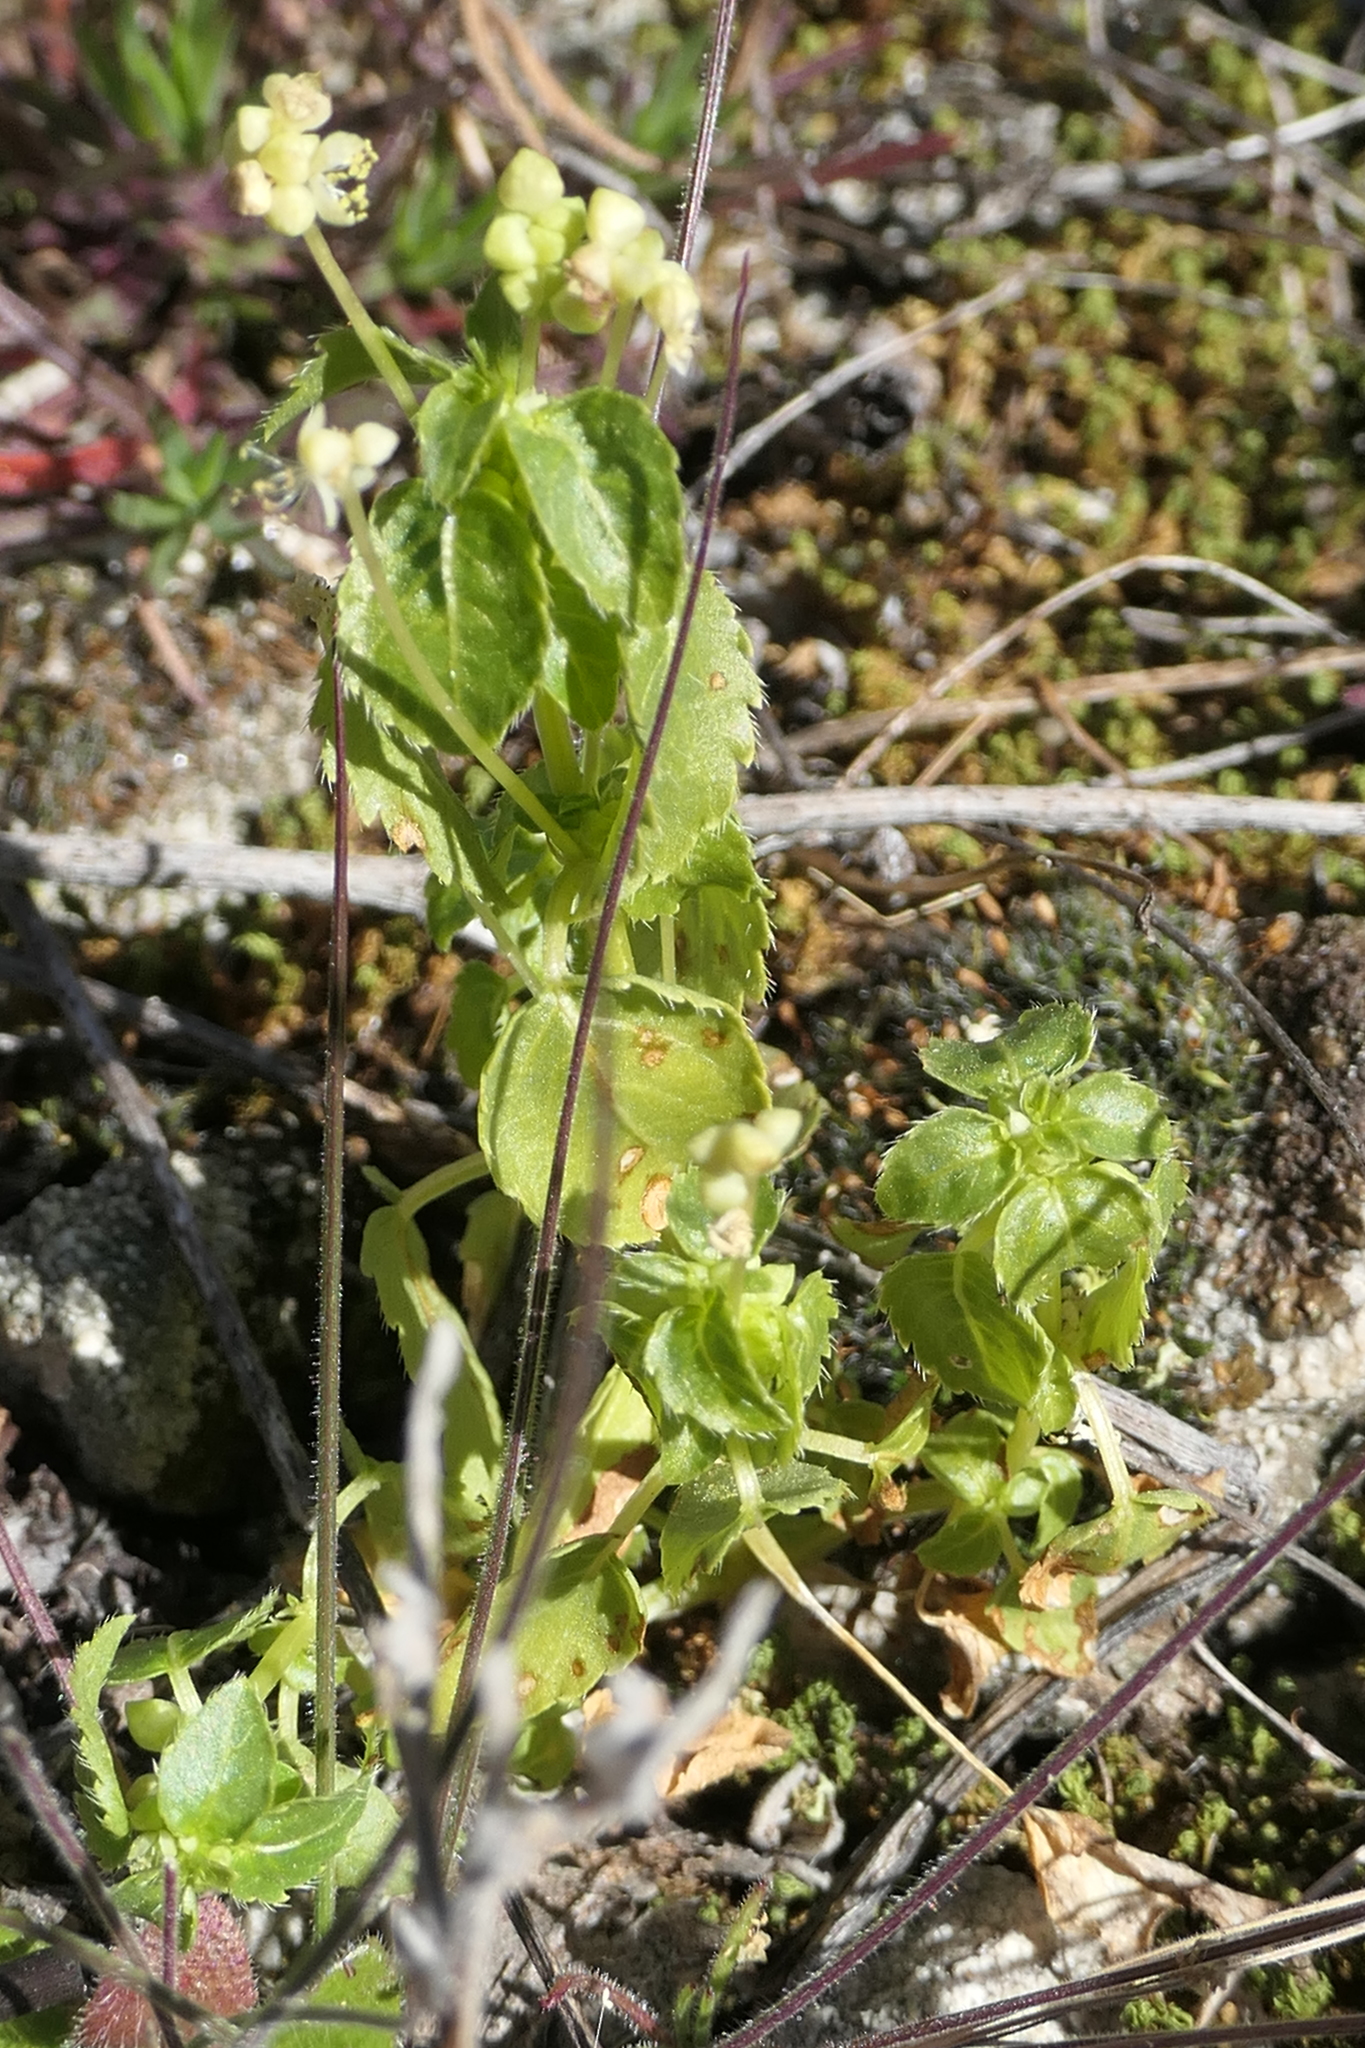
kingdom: Plantae
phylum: Tracheophyta
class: Magnoliopsida
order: Malpighiales
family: Euphorbiaceae
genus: Mercurialis
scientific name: Mercurialis annua
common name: Annual mercury
